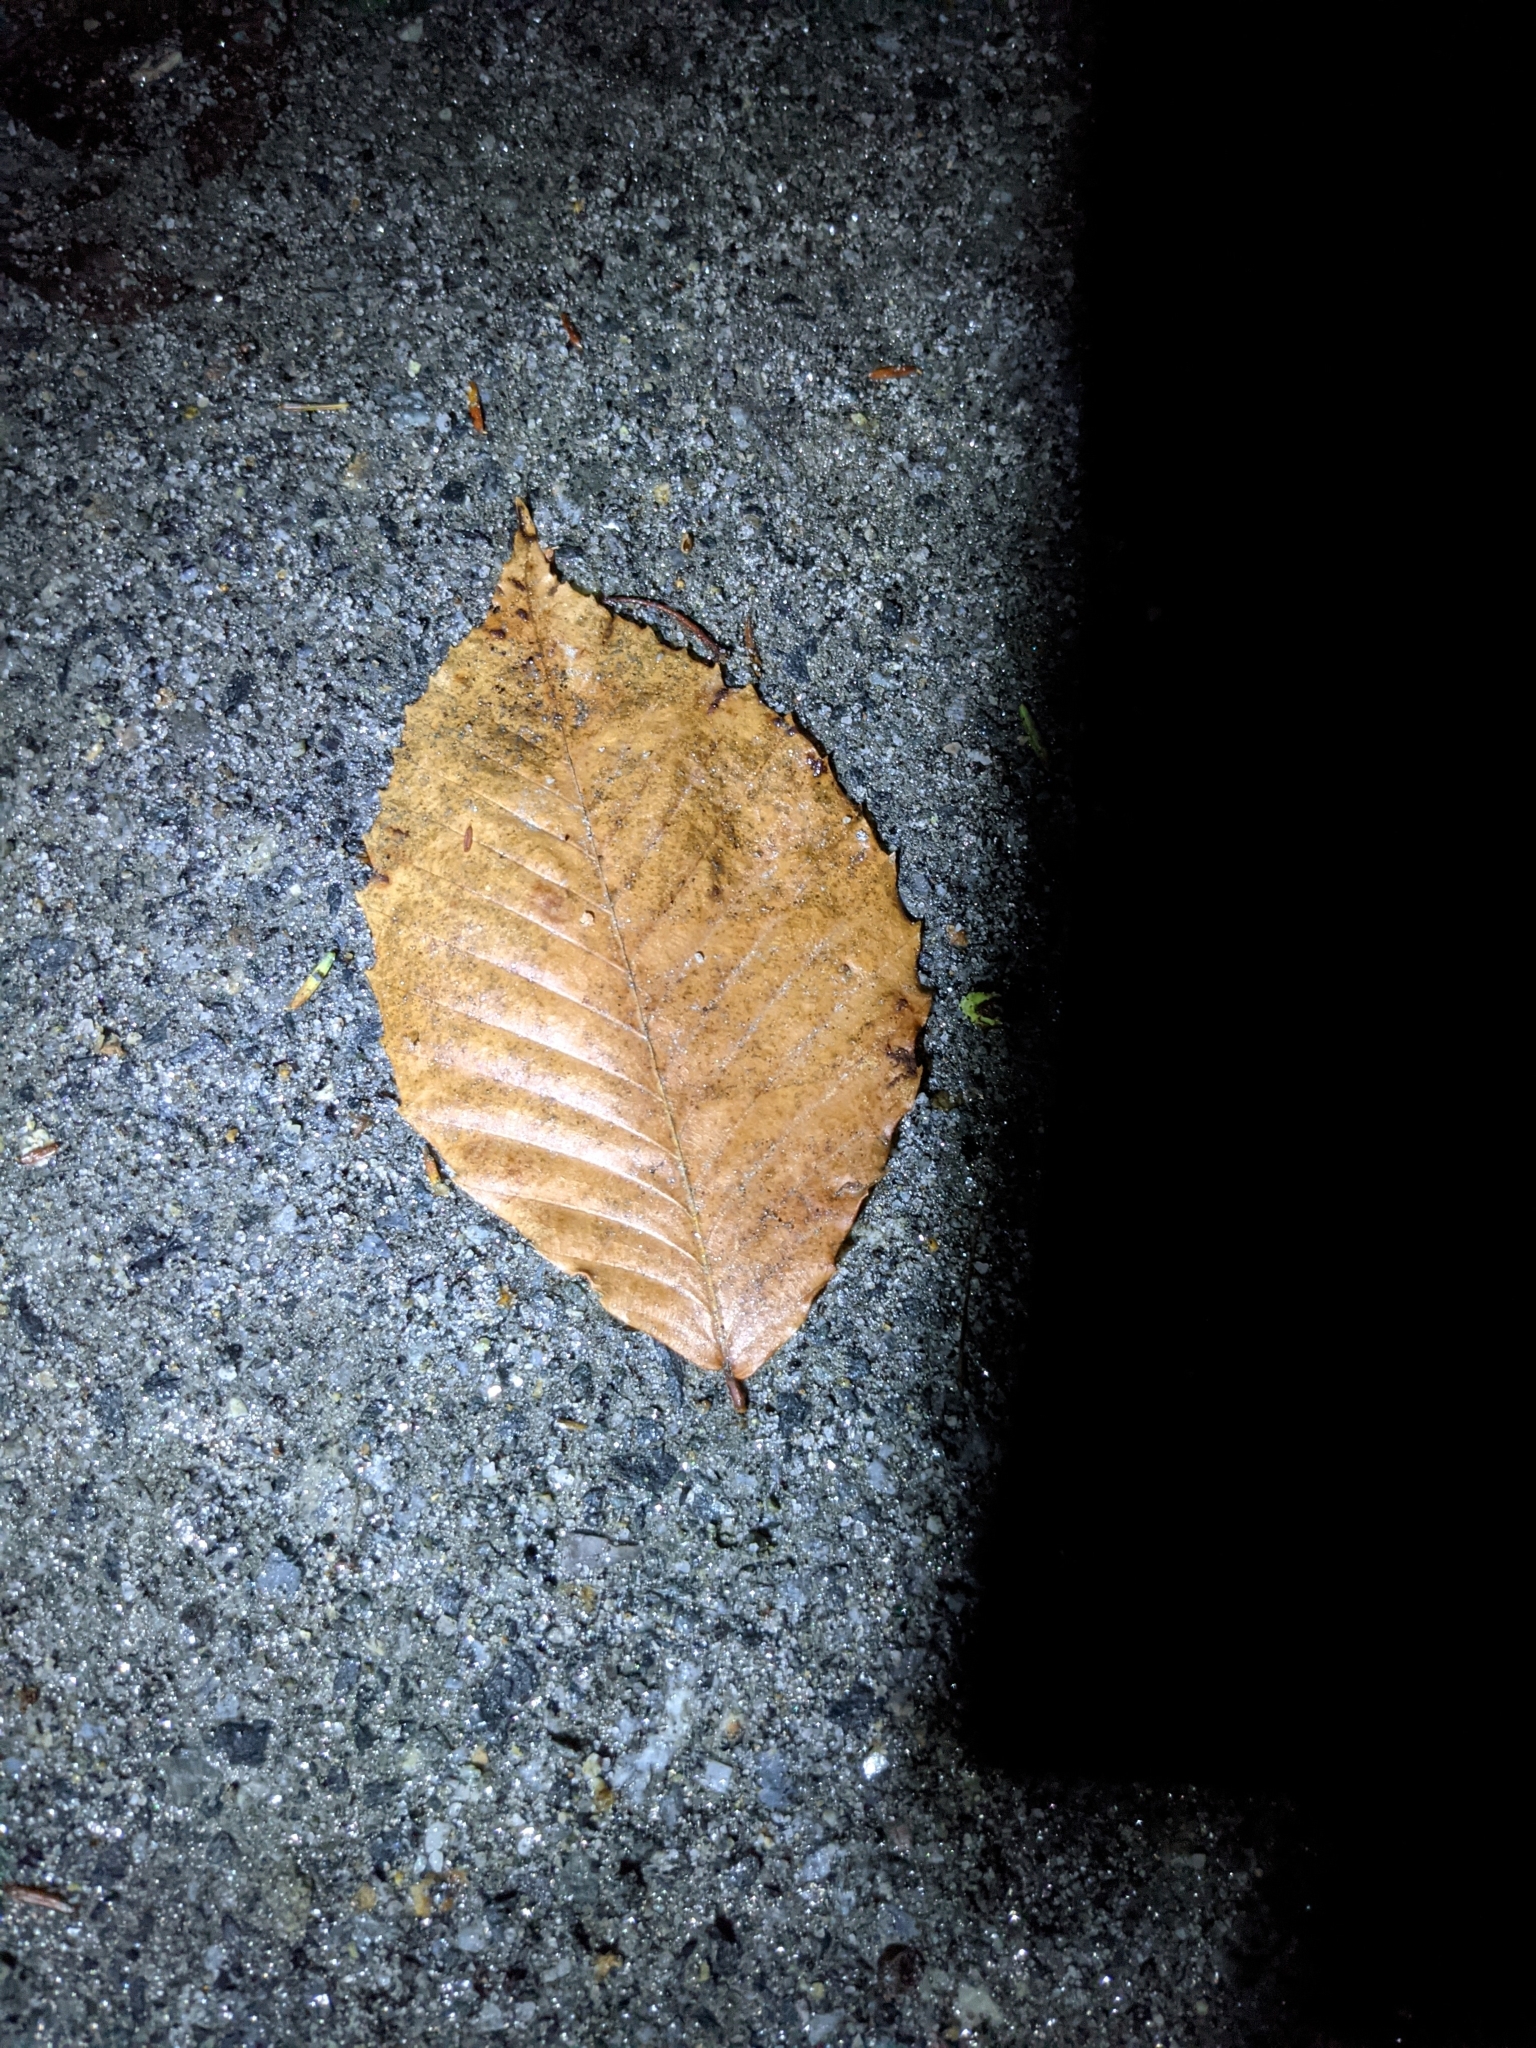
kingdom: Plantae
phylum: Tracheophyta
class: Magnoliopsida
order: Fagales
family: Fagaceae
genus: Fagus
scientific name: Fagus grandifolia
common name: American beech
